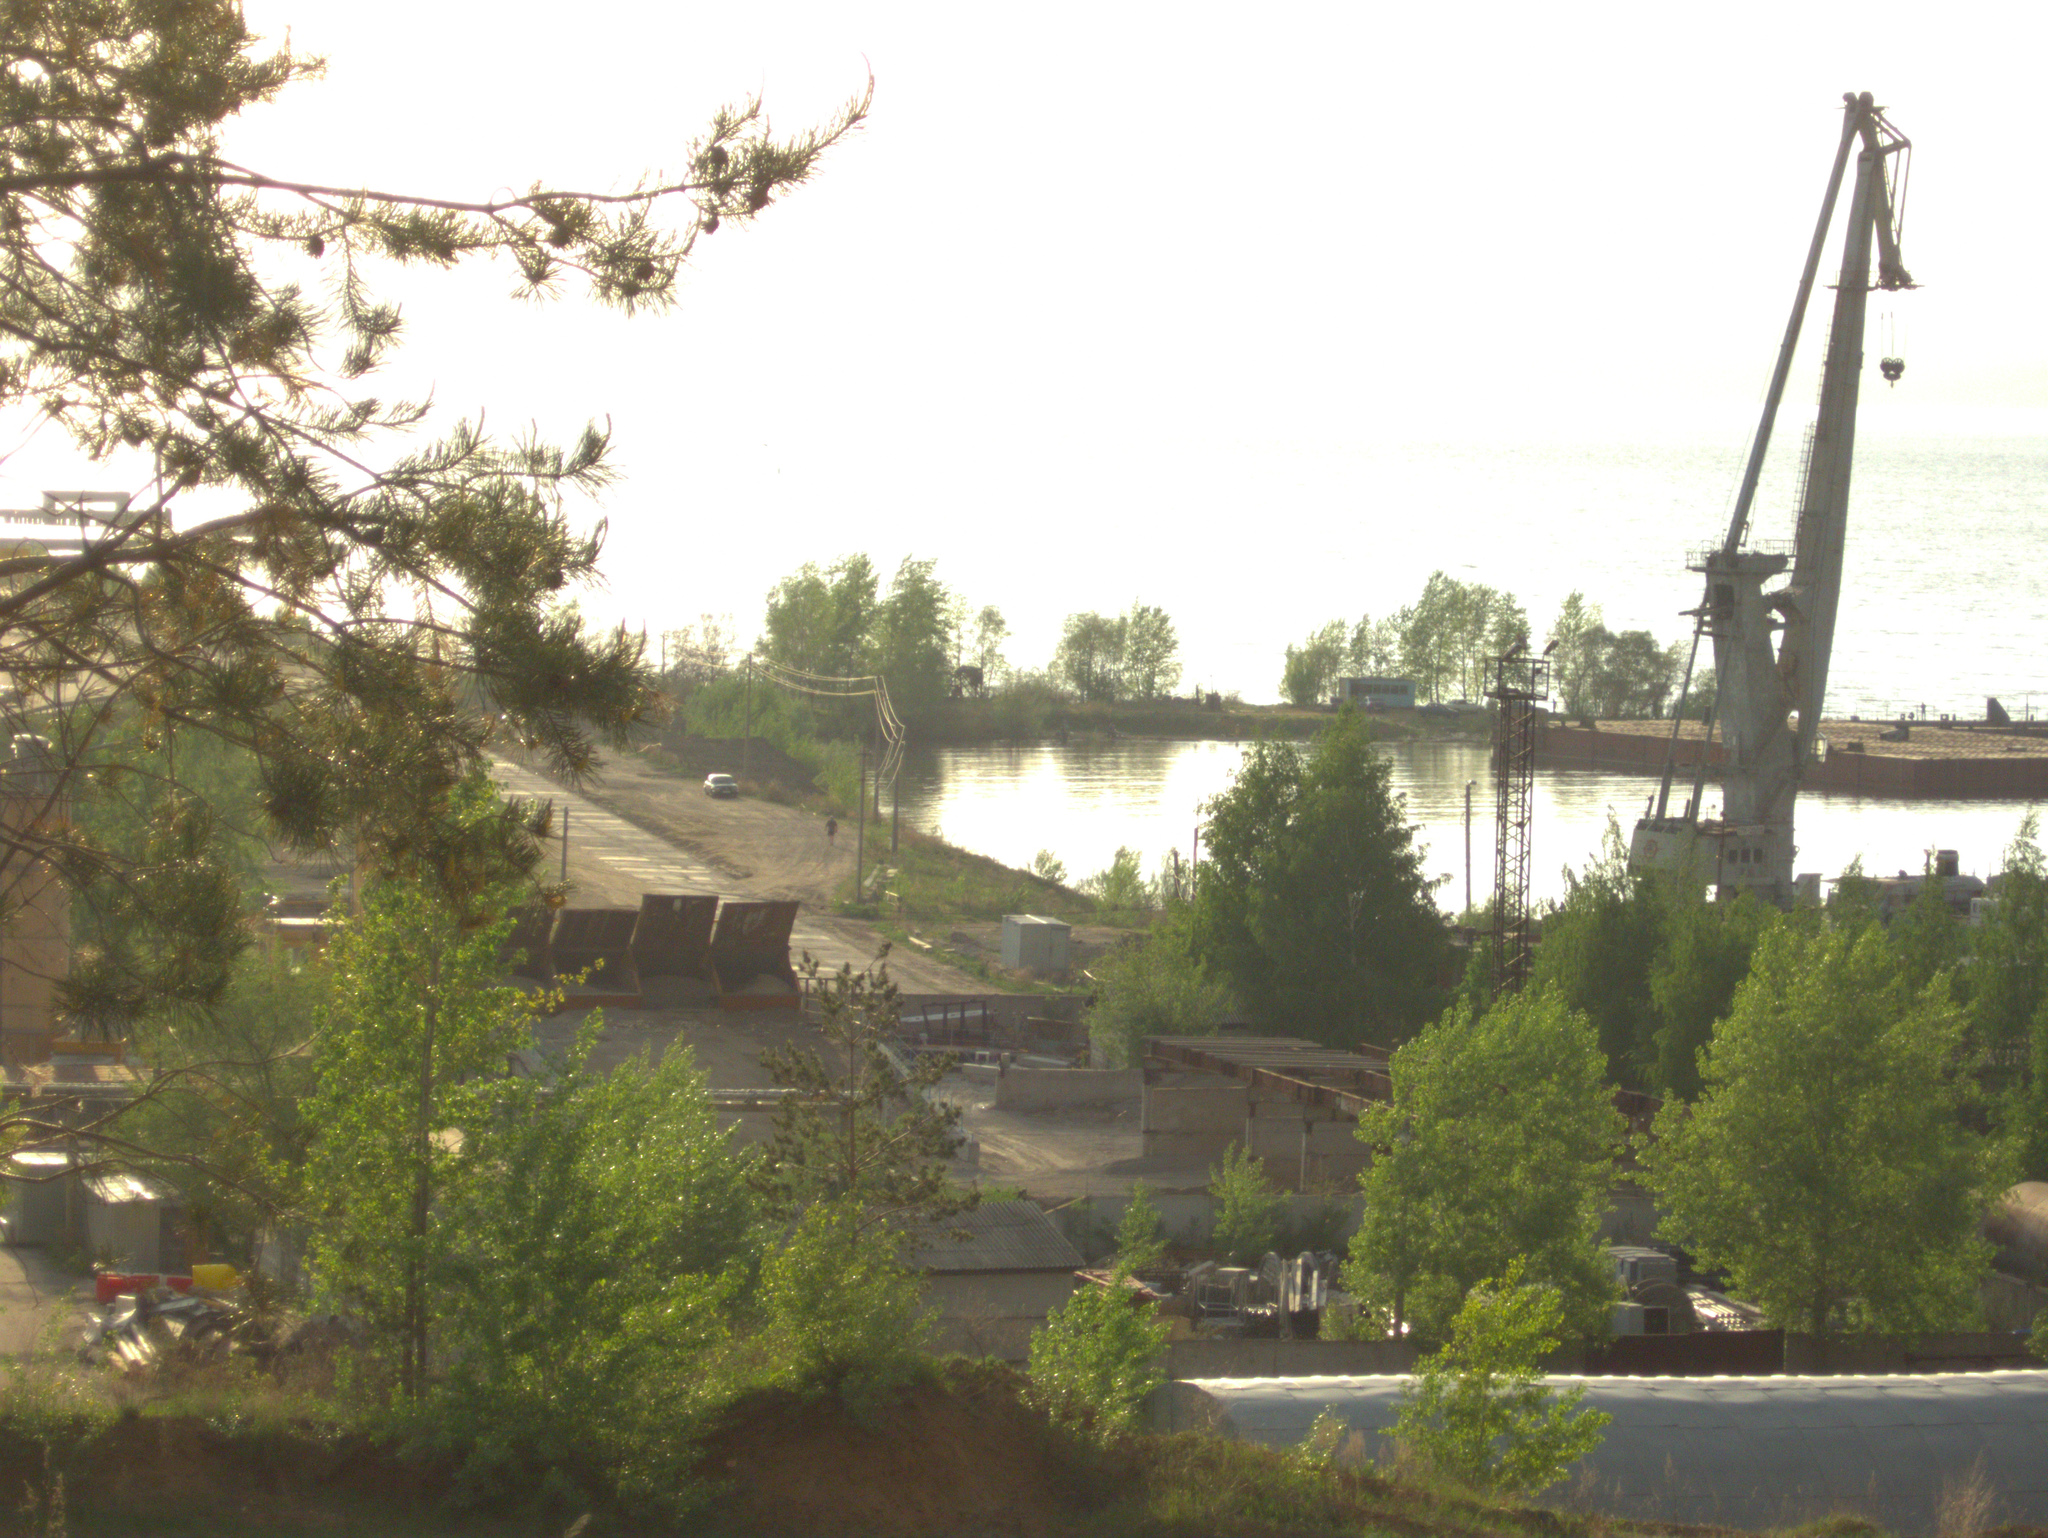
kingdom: Plantae
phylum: Tracheophyta
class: Pinopsida
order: Pinales
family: Pinaceae
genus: Pinus
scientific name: Pinus sylvestris
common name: Scots pine
